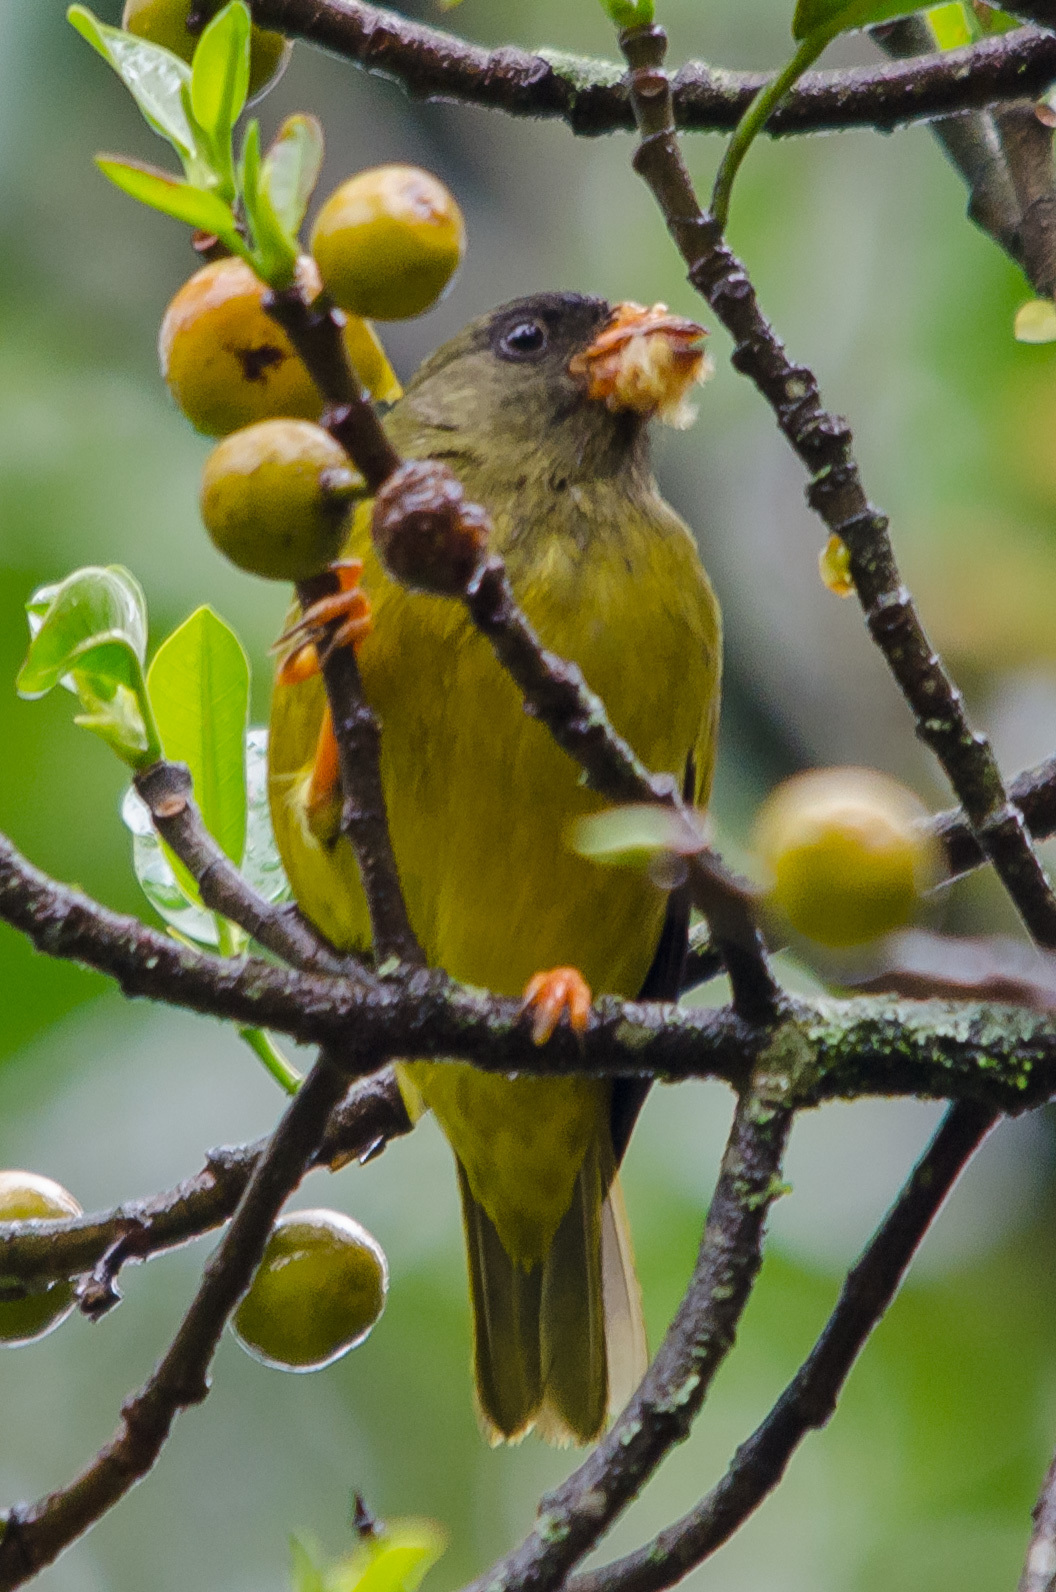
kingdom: Animalia
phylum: Chordata
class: Aves
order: Passeriformes
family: Fringillidae
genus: Linurgus
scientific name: Linurgus olivaceus
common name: Oriole finch
